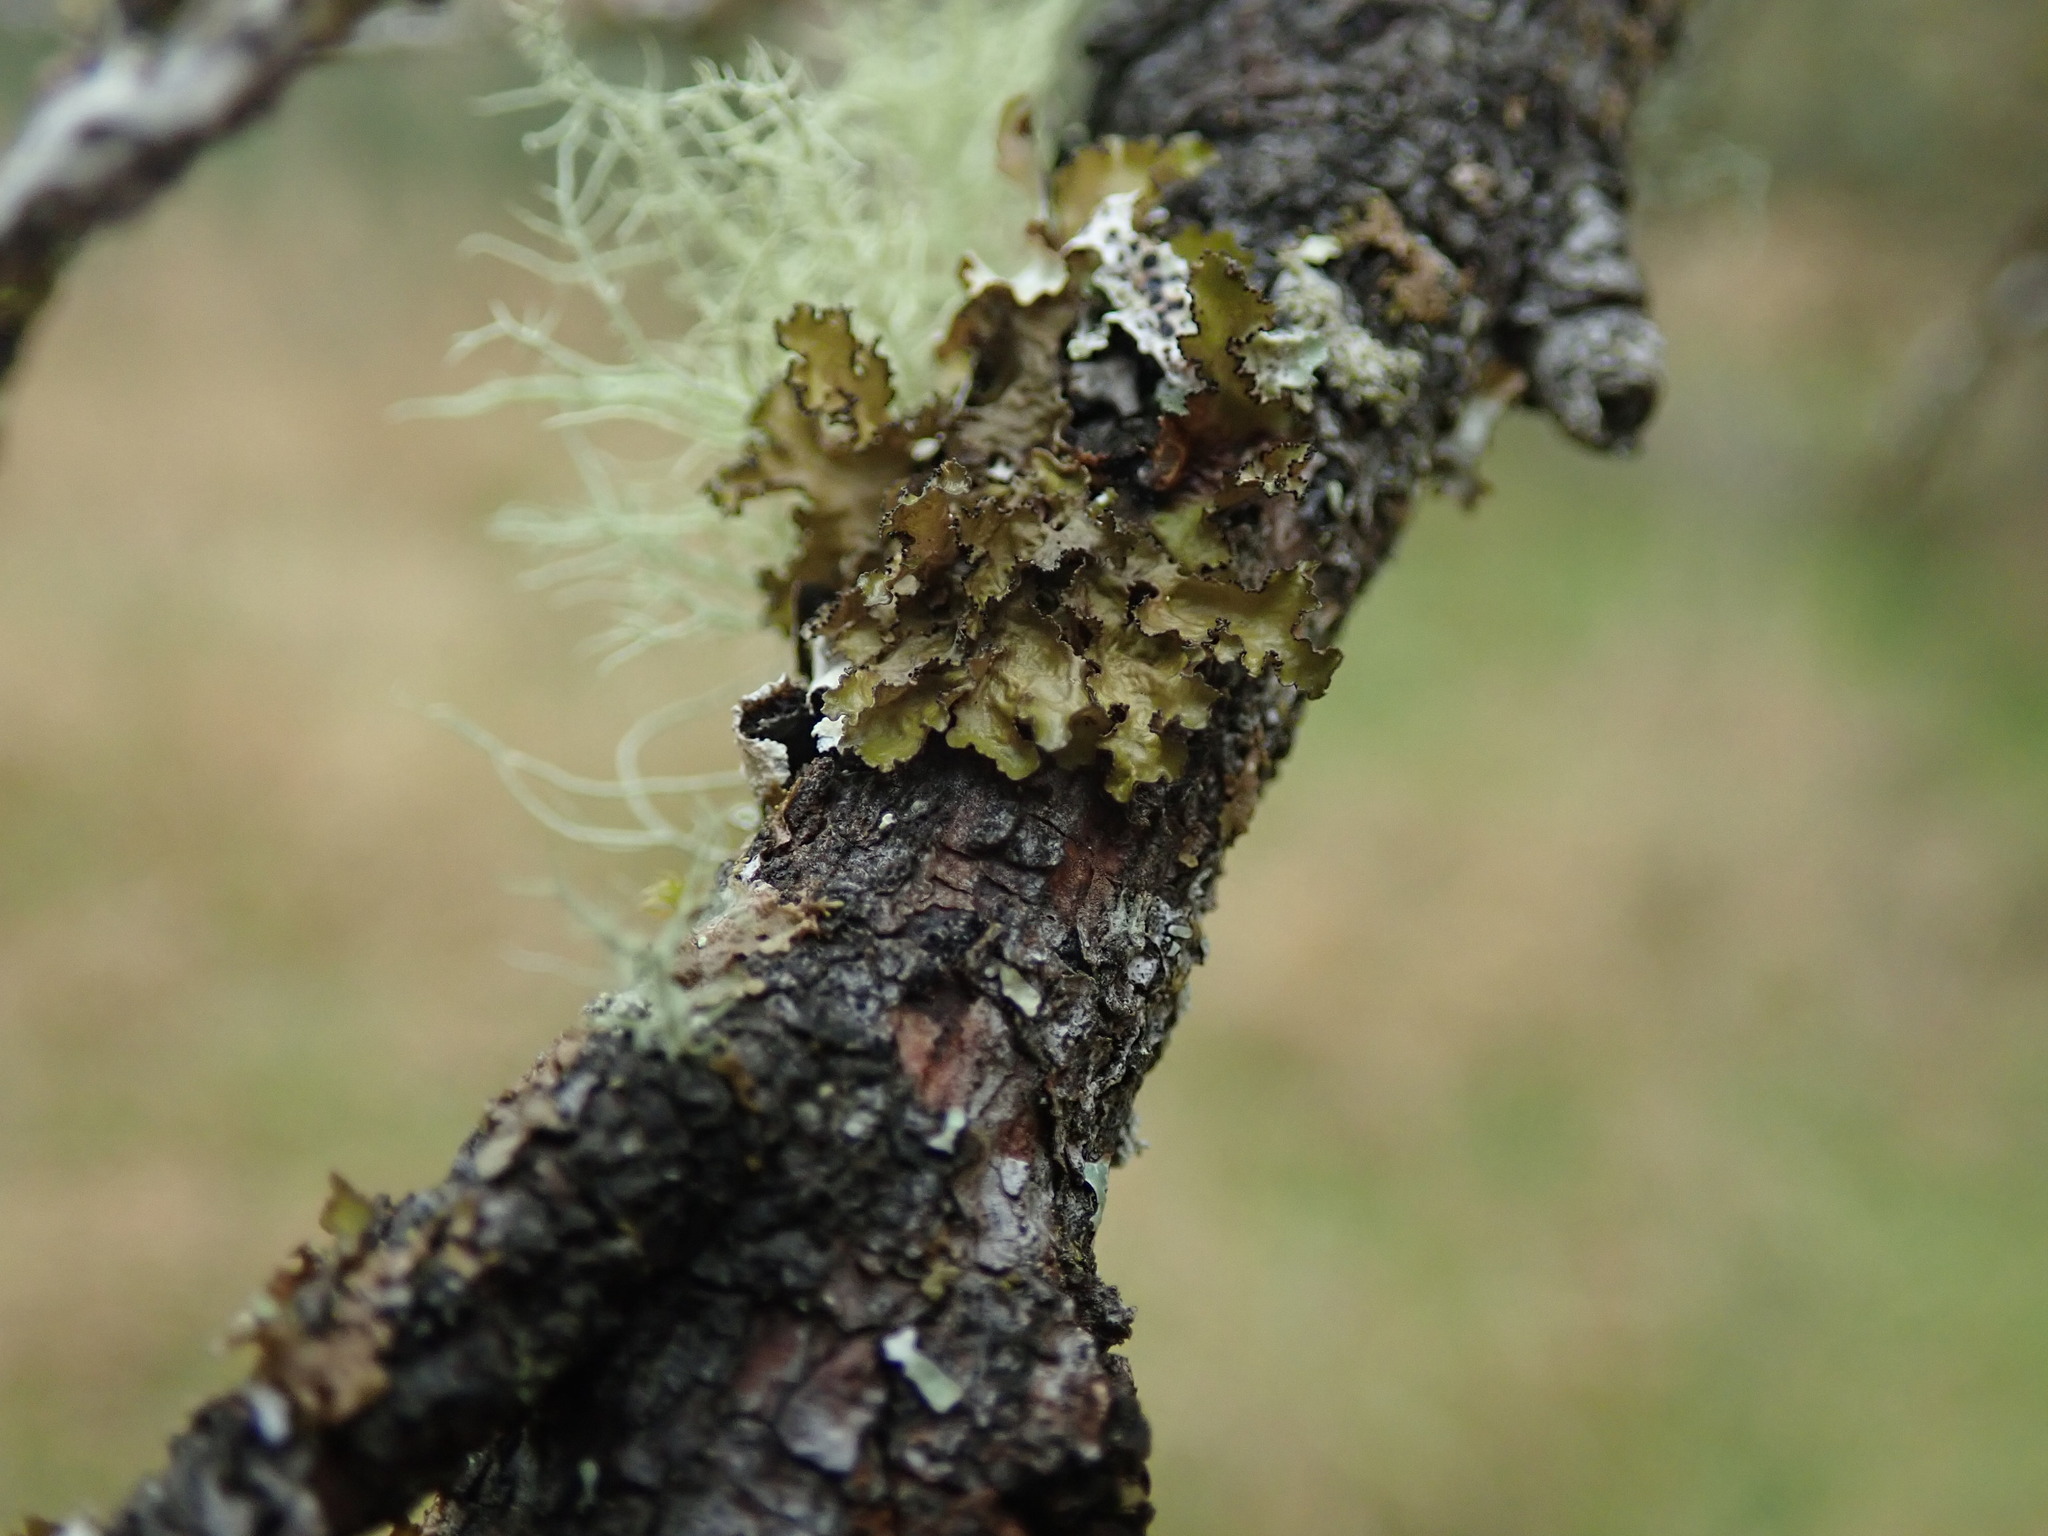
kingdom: Fungi
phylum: Ascomycota
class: Lecanoromycetes
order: Lecanorales
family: Parmeliaceae
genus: Nephromopsis
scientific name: Nephromopsis orbata
